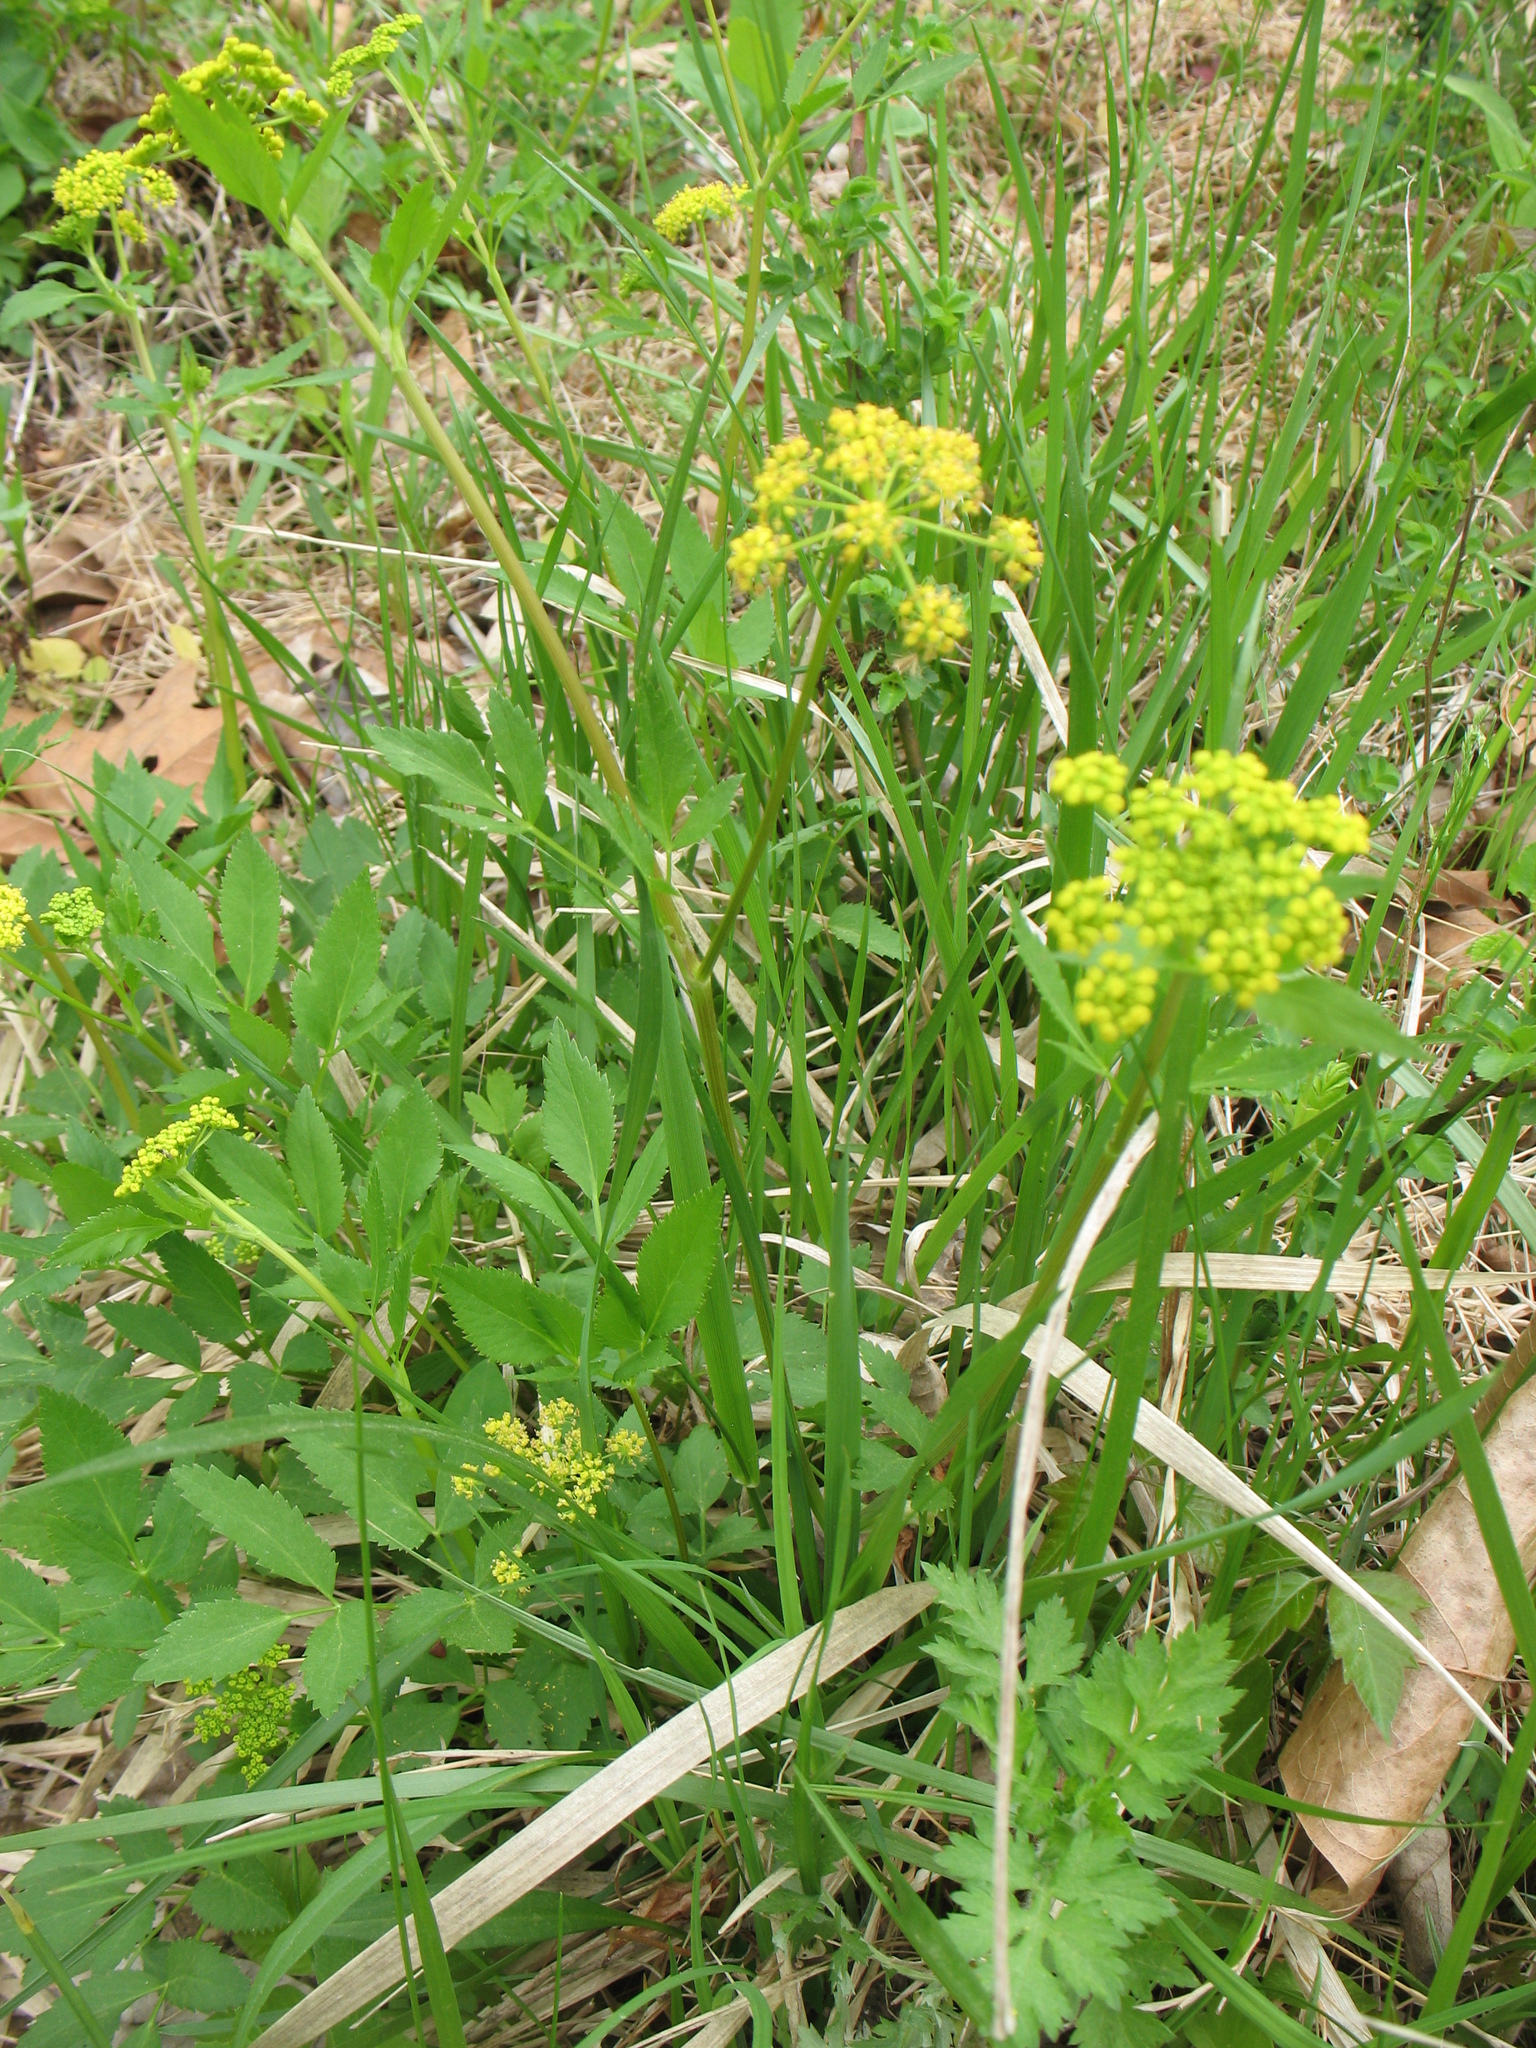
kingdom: Plantae
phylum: Tracheophyta
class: Magnoliopsida
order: Apiales
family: Apiaceae
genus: Zizia
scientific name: Zizia aurea
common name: Golden alexanders
